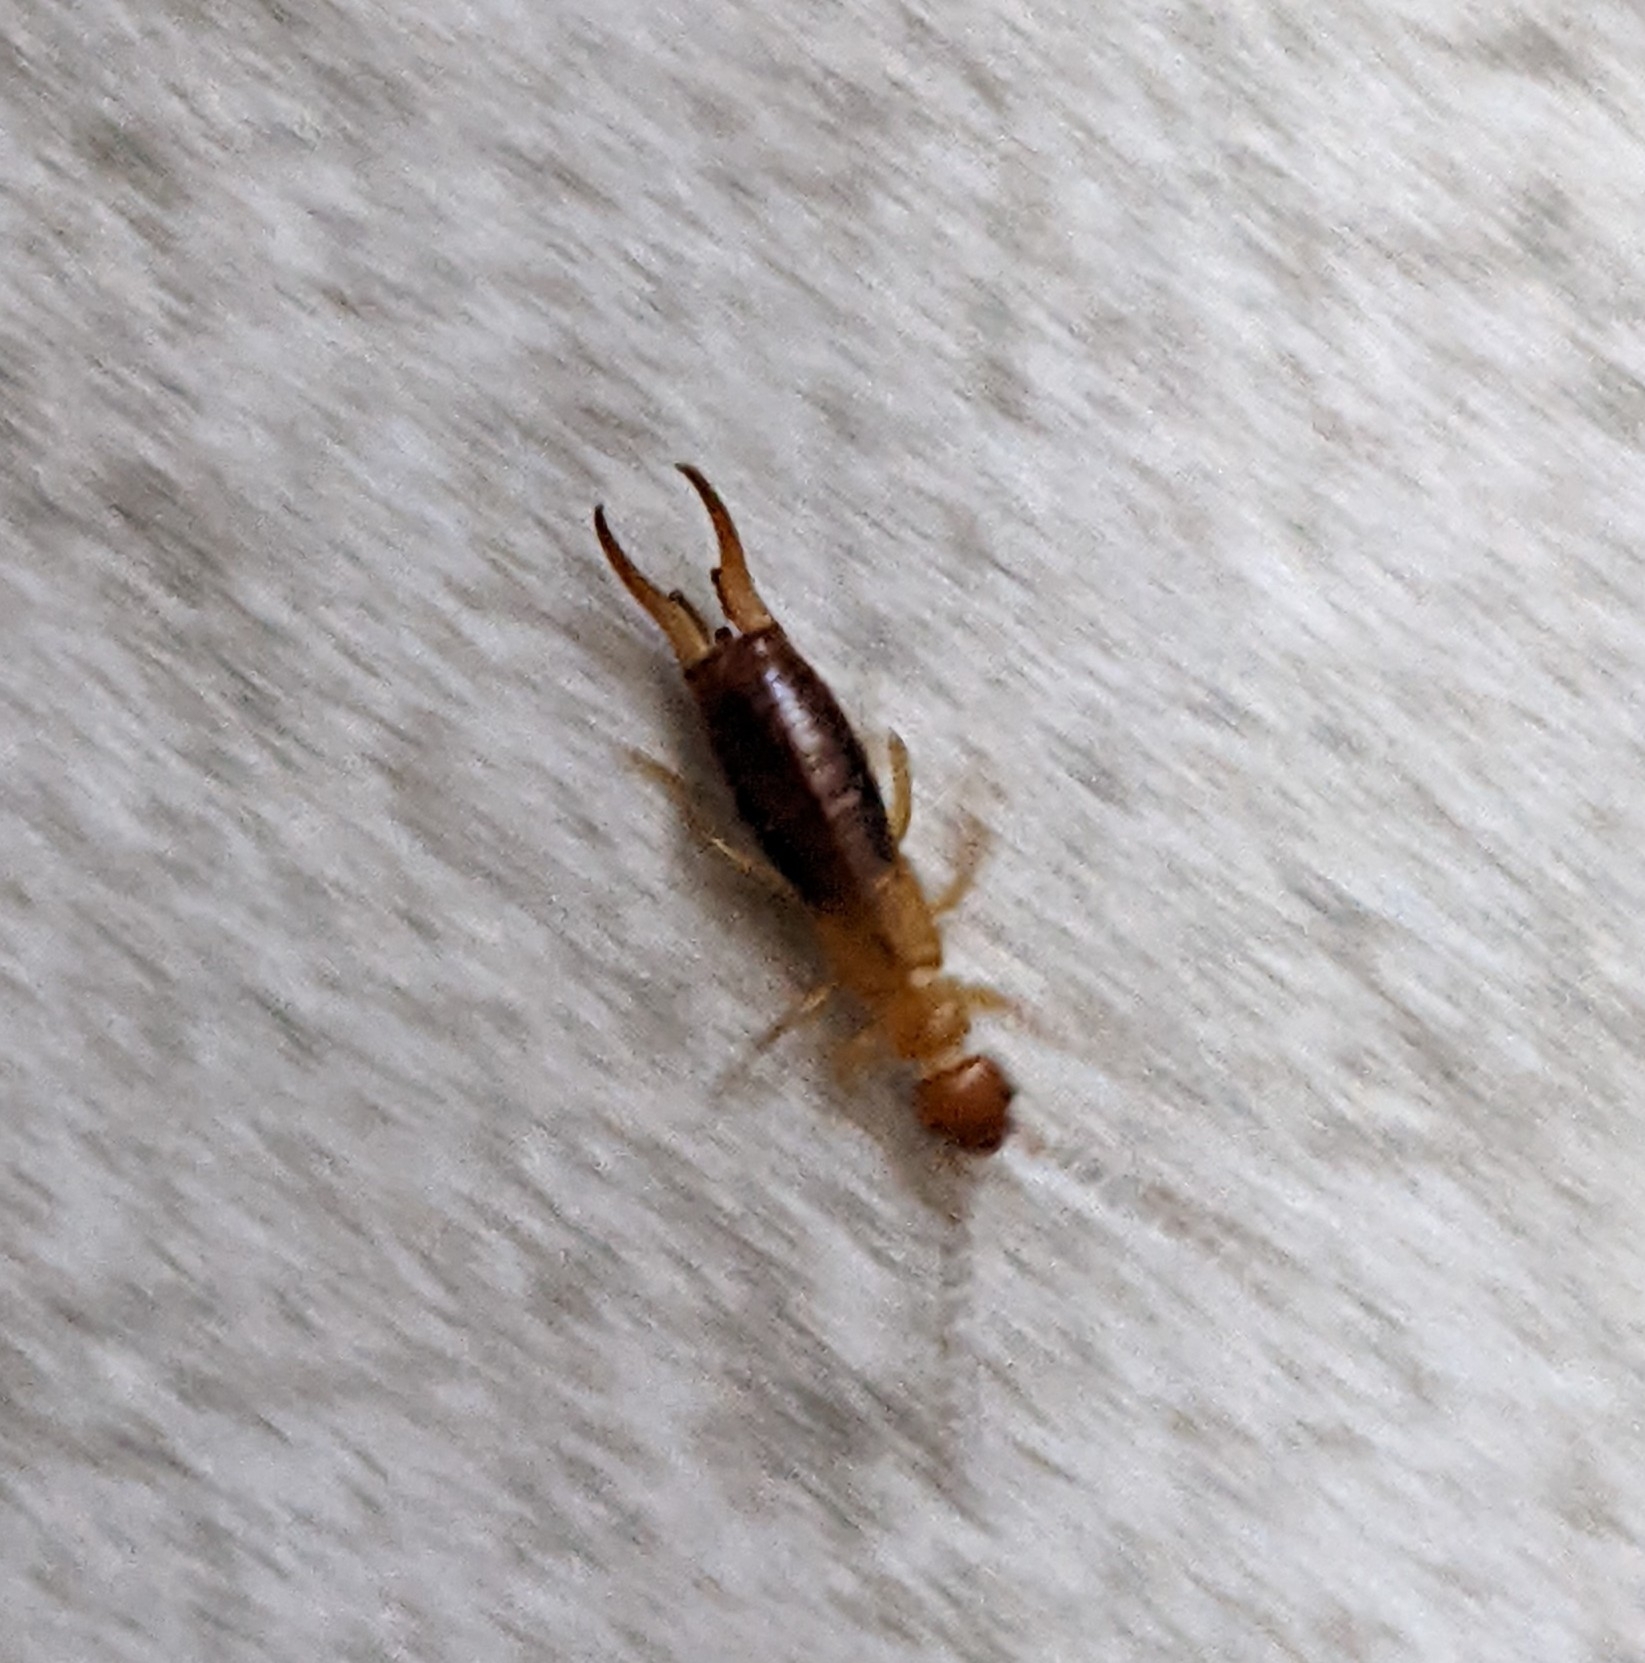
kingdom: Animalia
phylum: Arthropoda
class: Insecta
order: Dermaptera
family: Forficulidae
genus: Forficula
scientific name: Forficula aetolica
